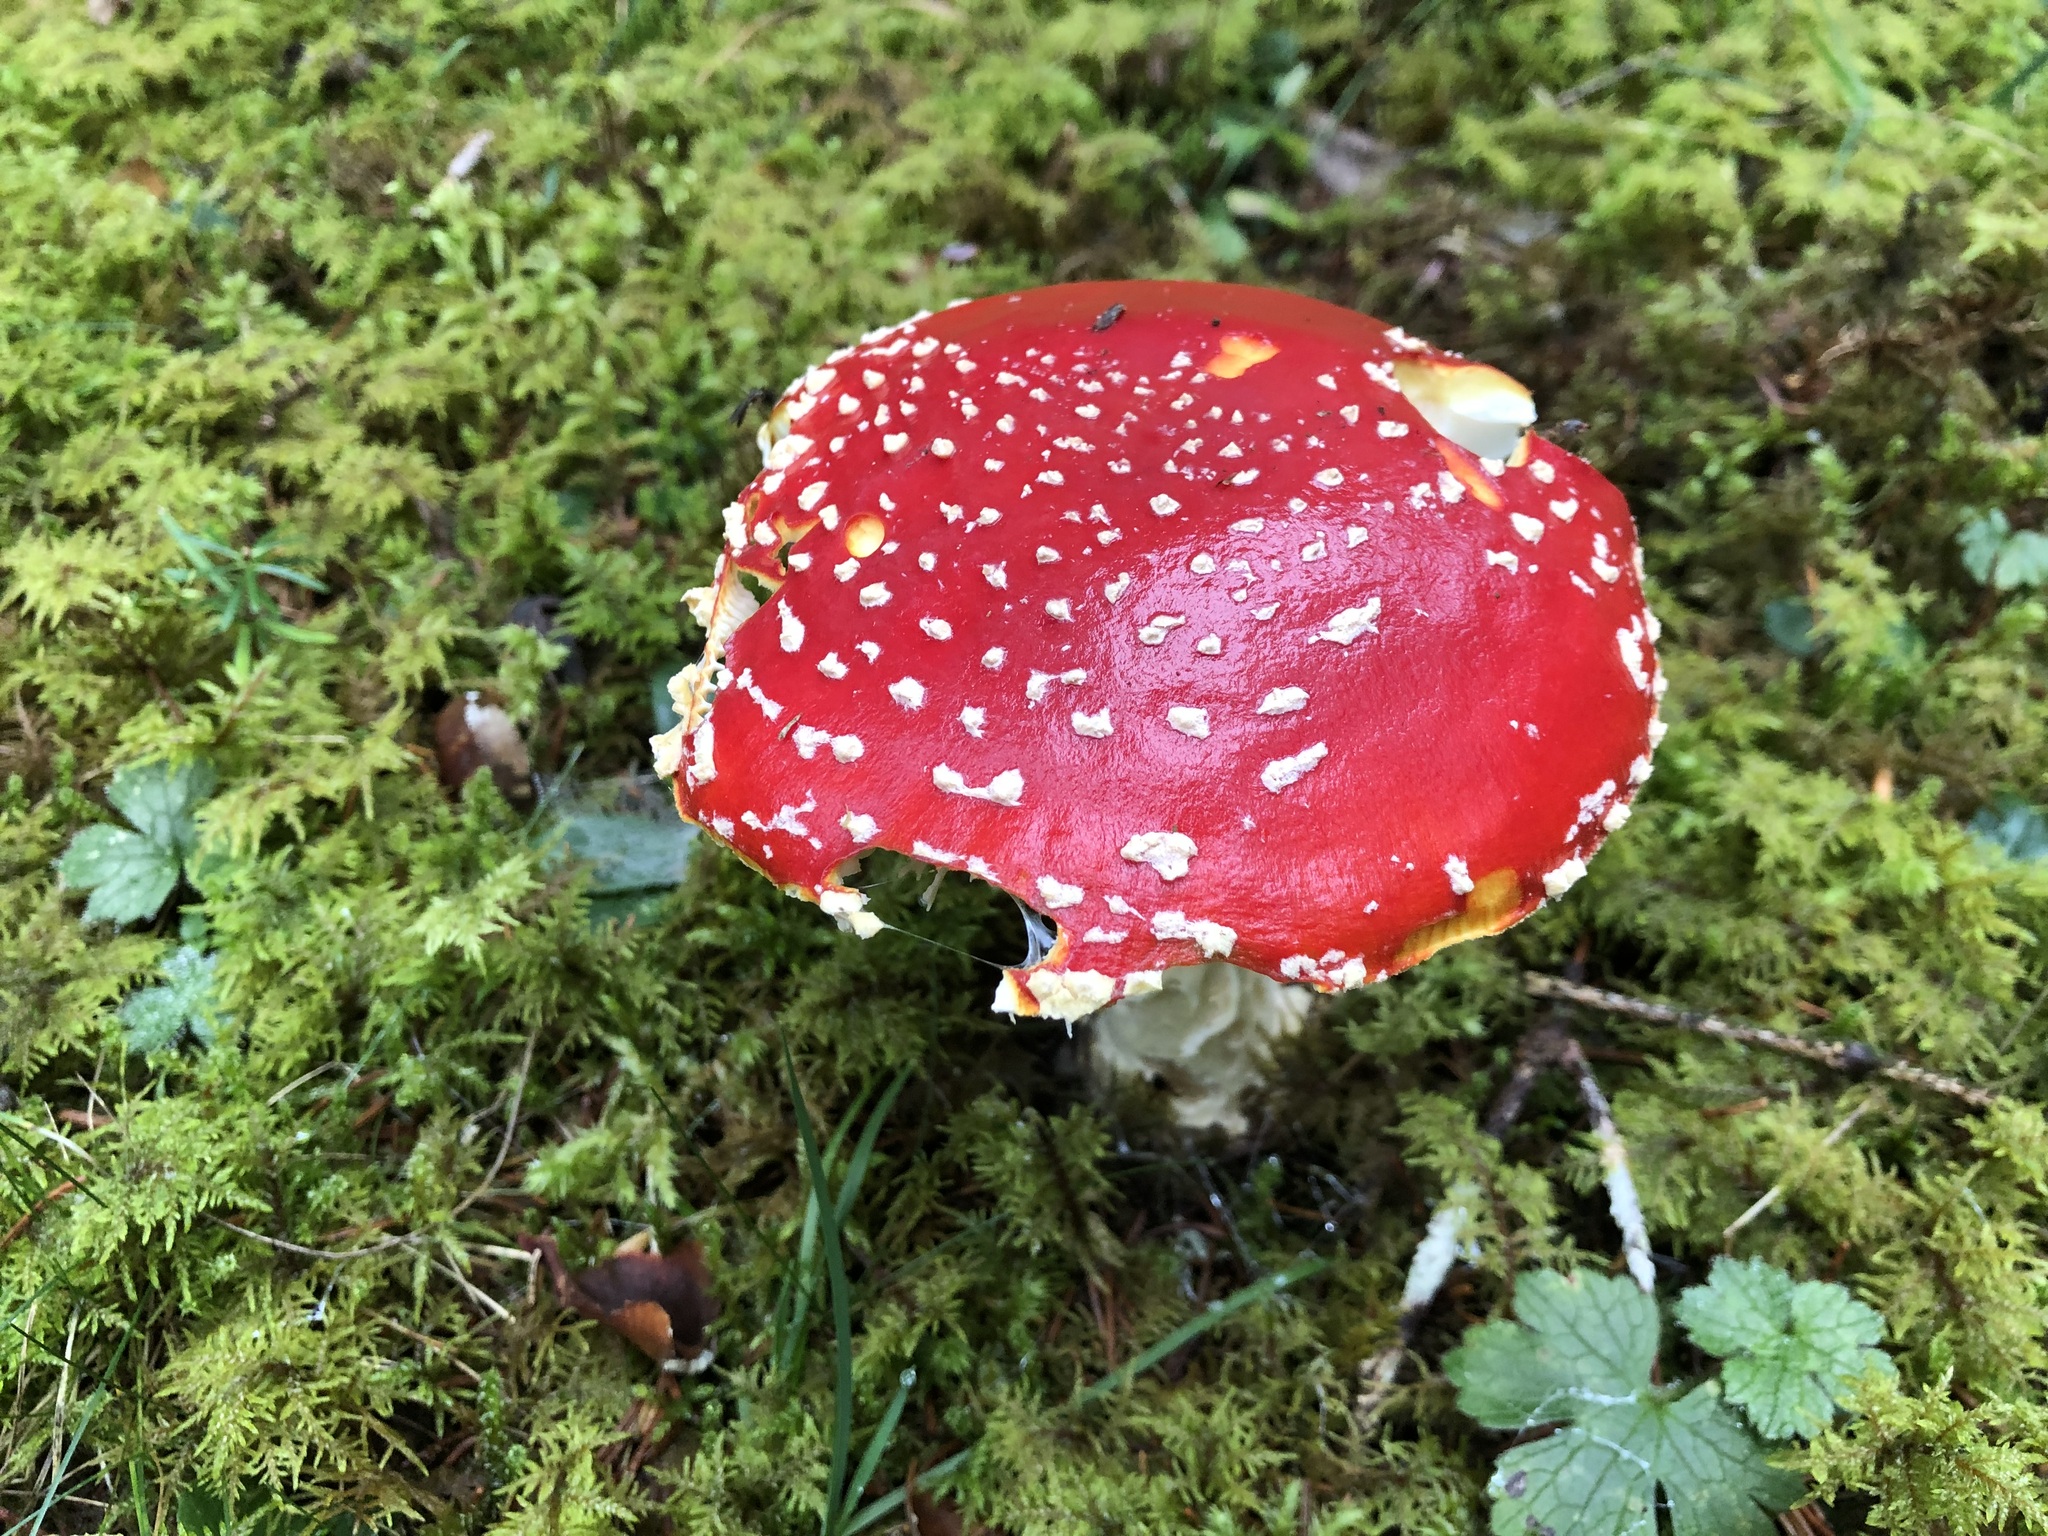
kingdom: Fungi
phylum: Basidiomycota
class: Agaricomycetes
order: Agaricales
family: Amanitaceae
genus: Amanita
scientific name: Amanita muscaria
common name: Fly agaric
